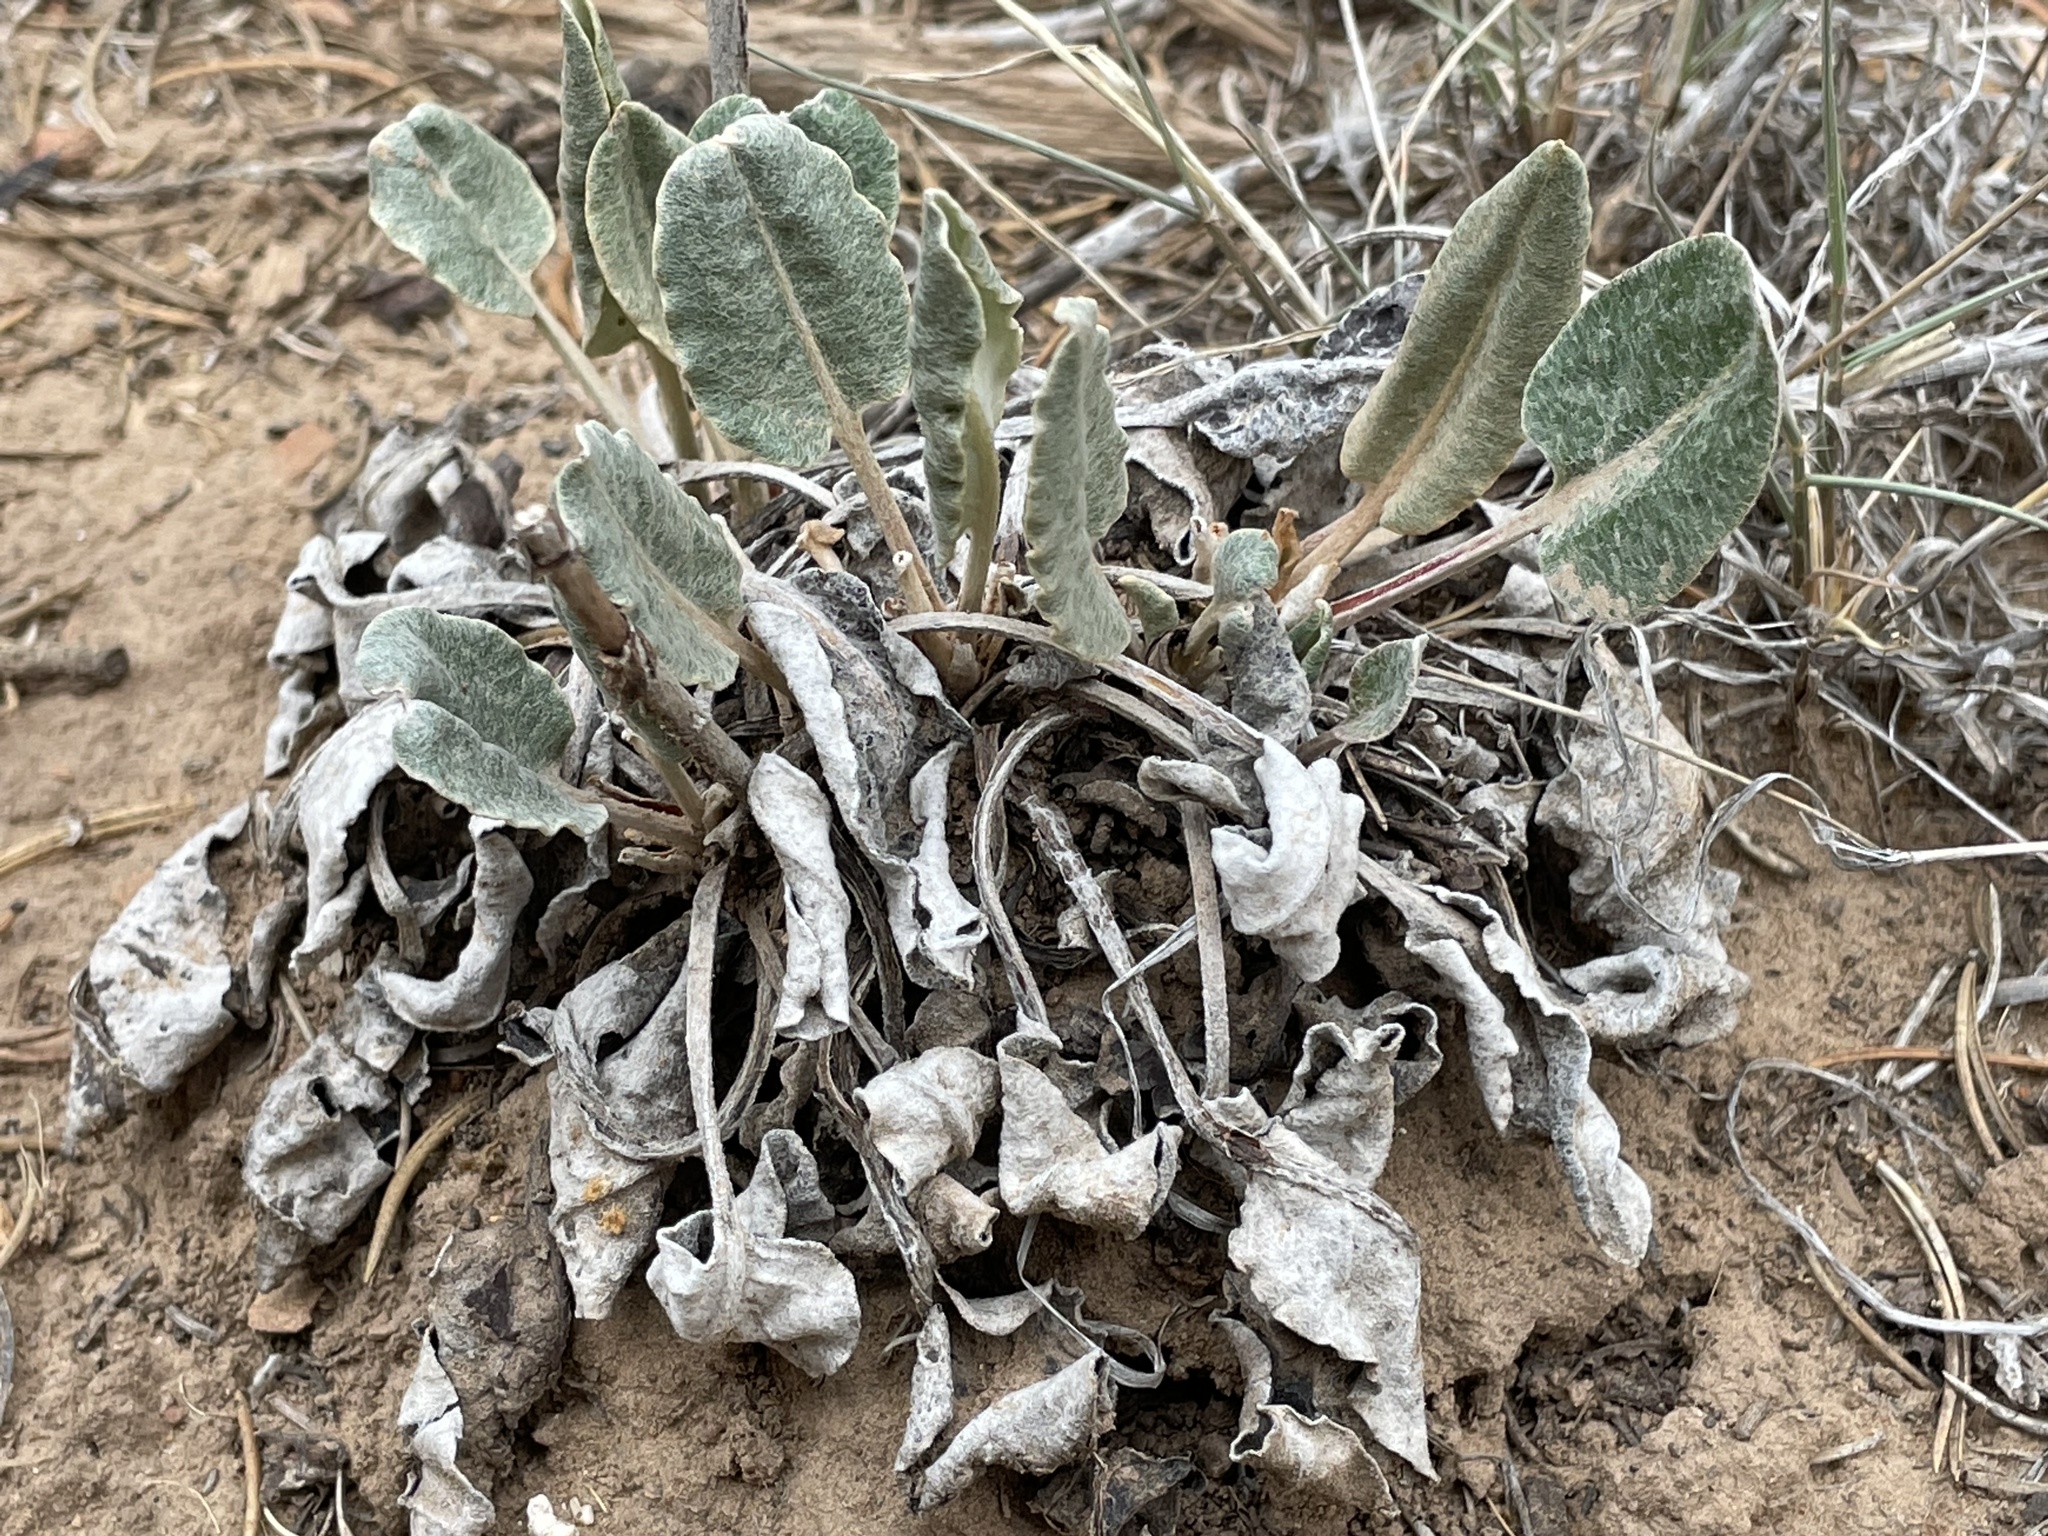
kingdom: Plantae
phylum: Tracheophyta
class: Magnoliopsida
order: Caryophyllales
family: Polygonaceae
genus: Eriogonum
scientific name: Eriogonum racemosum
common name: Redroot wild buckwheat
